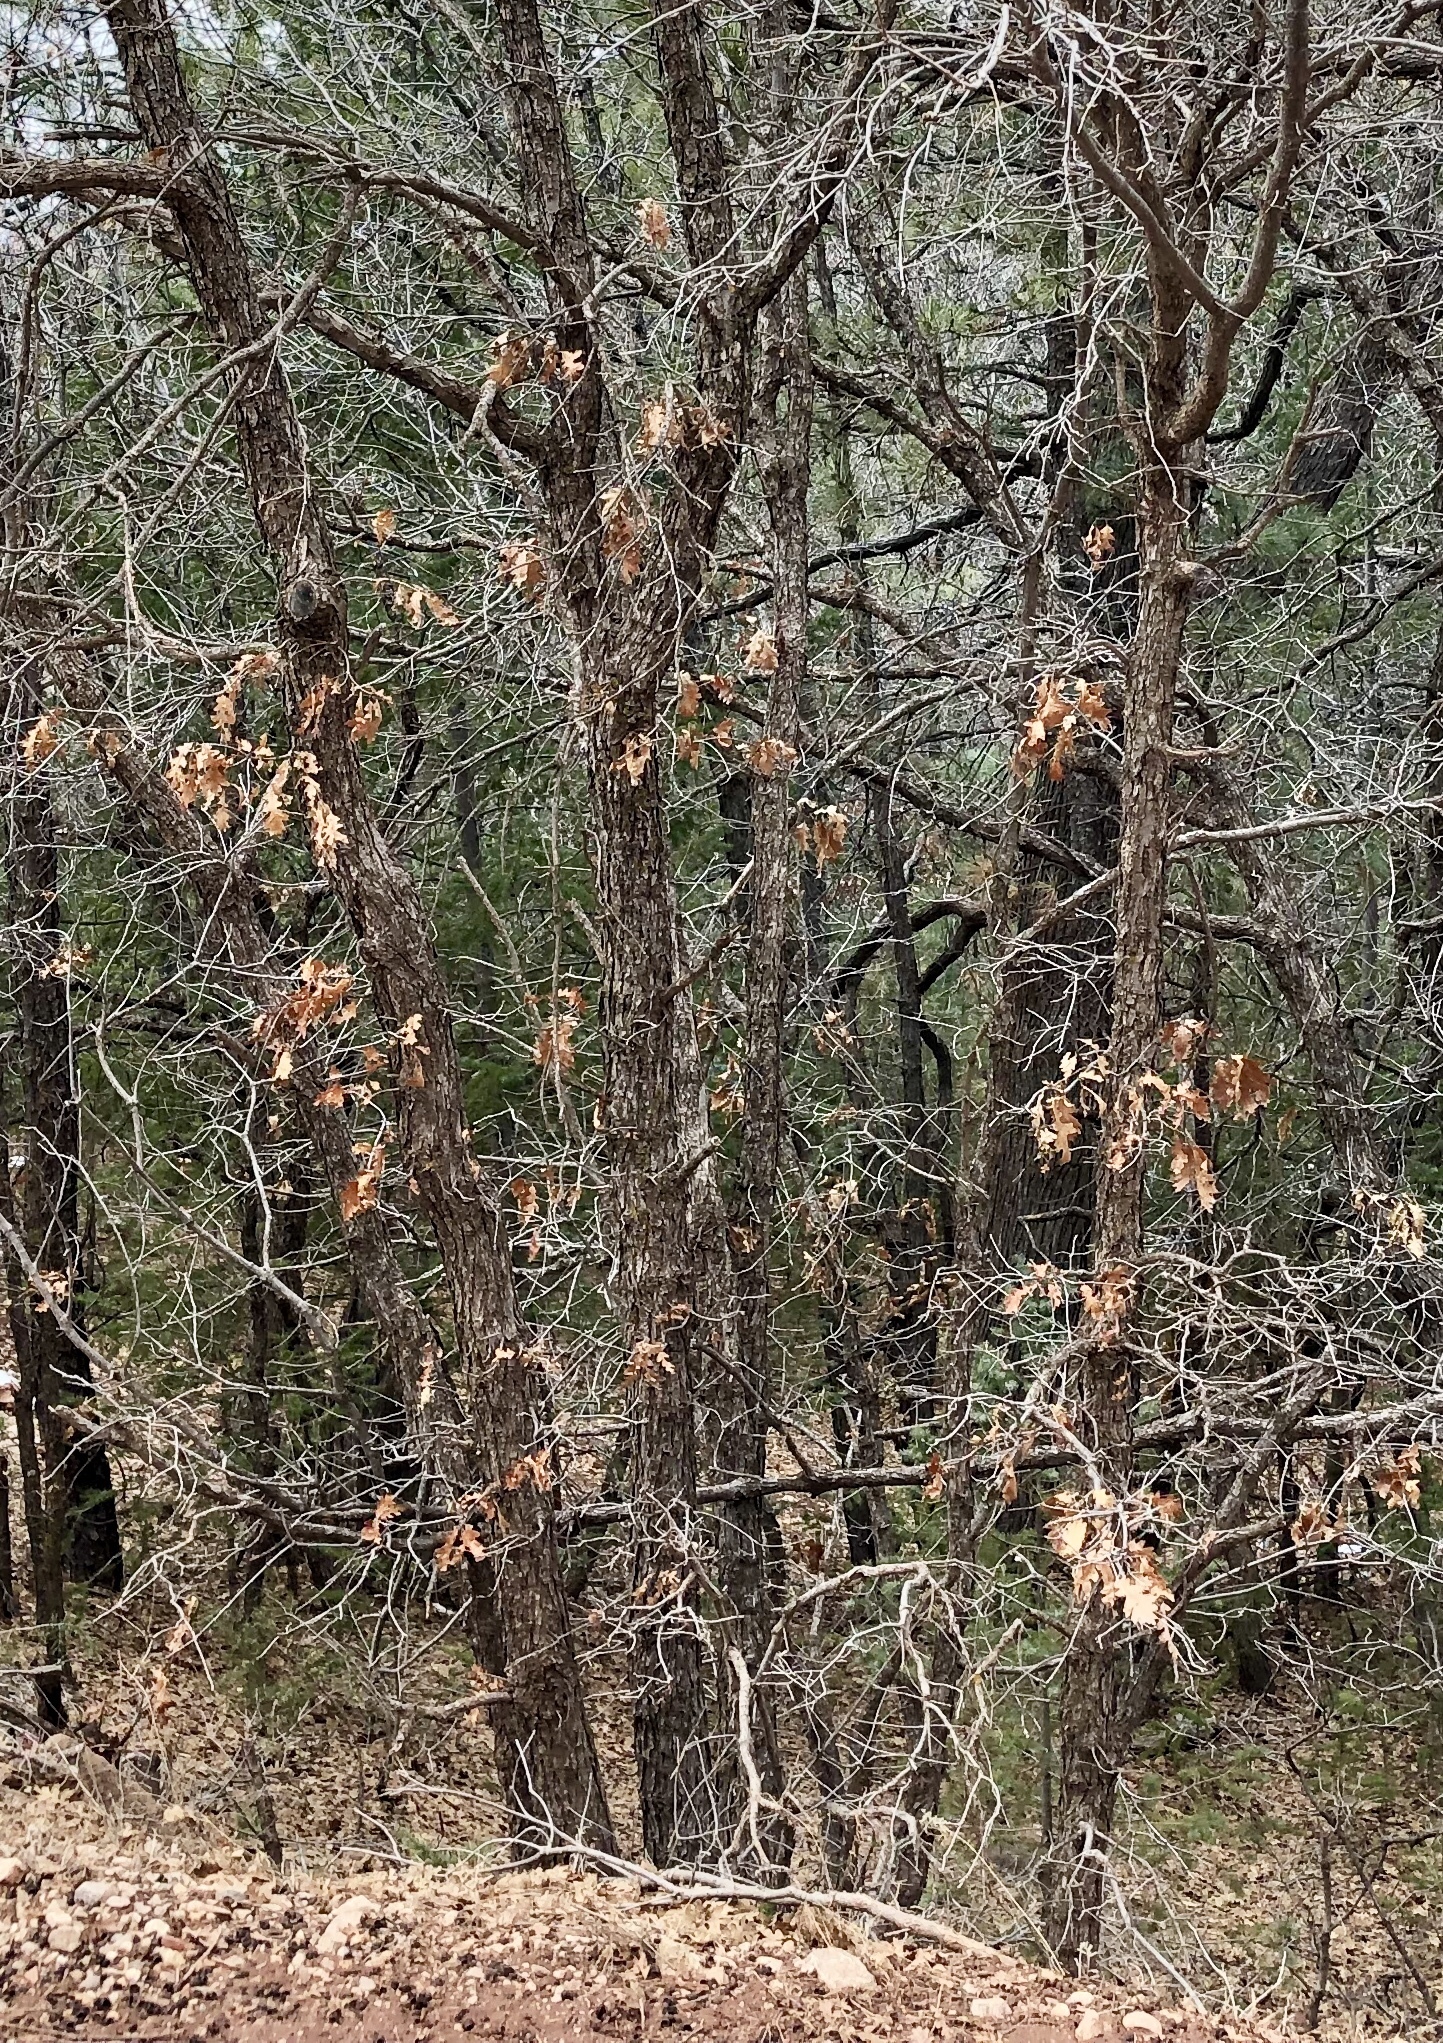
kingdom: Plantae
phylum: Tracheophyta
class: Magnoliopsida
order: Fagales
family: Fagaceae
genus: Quercus
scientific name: Quercus gambelii
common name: Gambel oak
